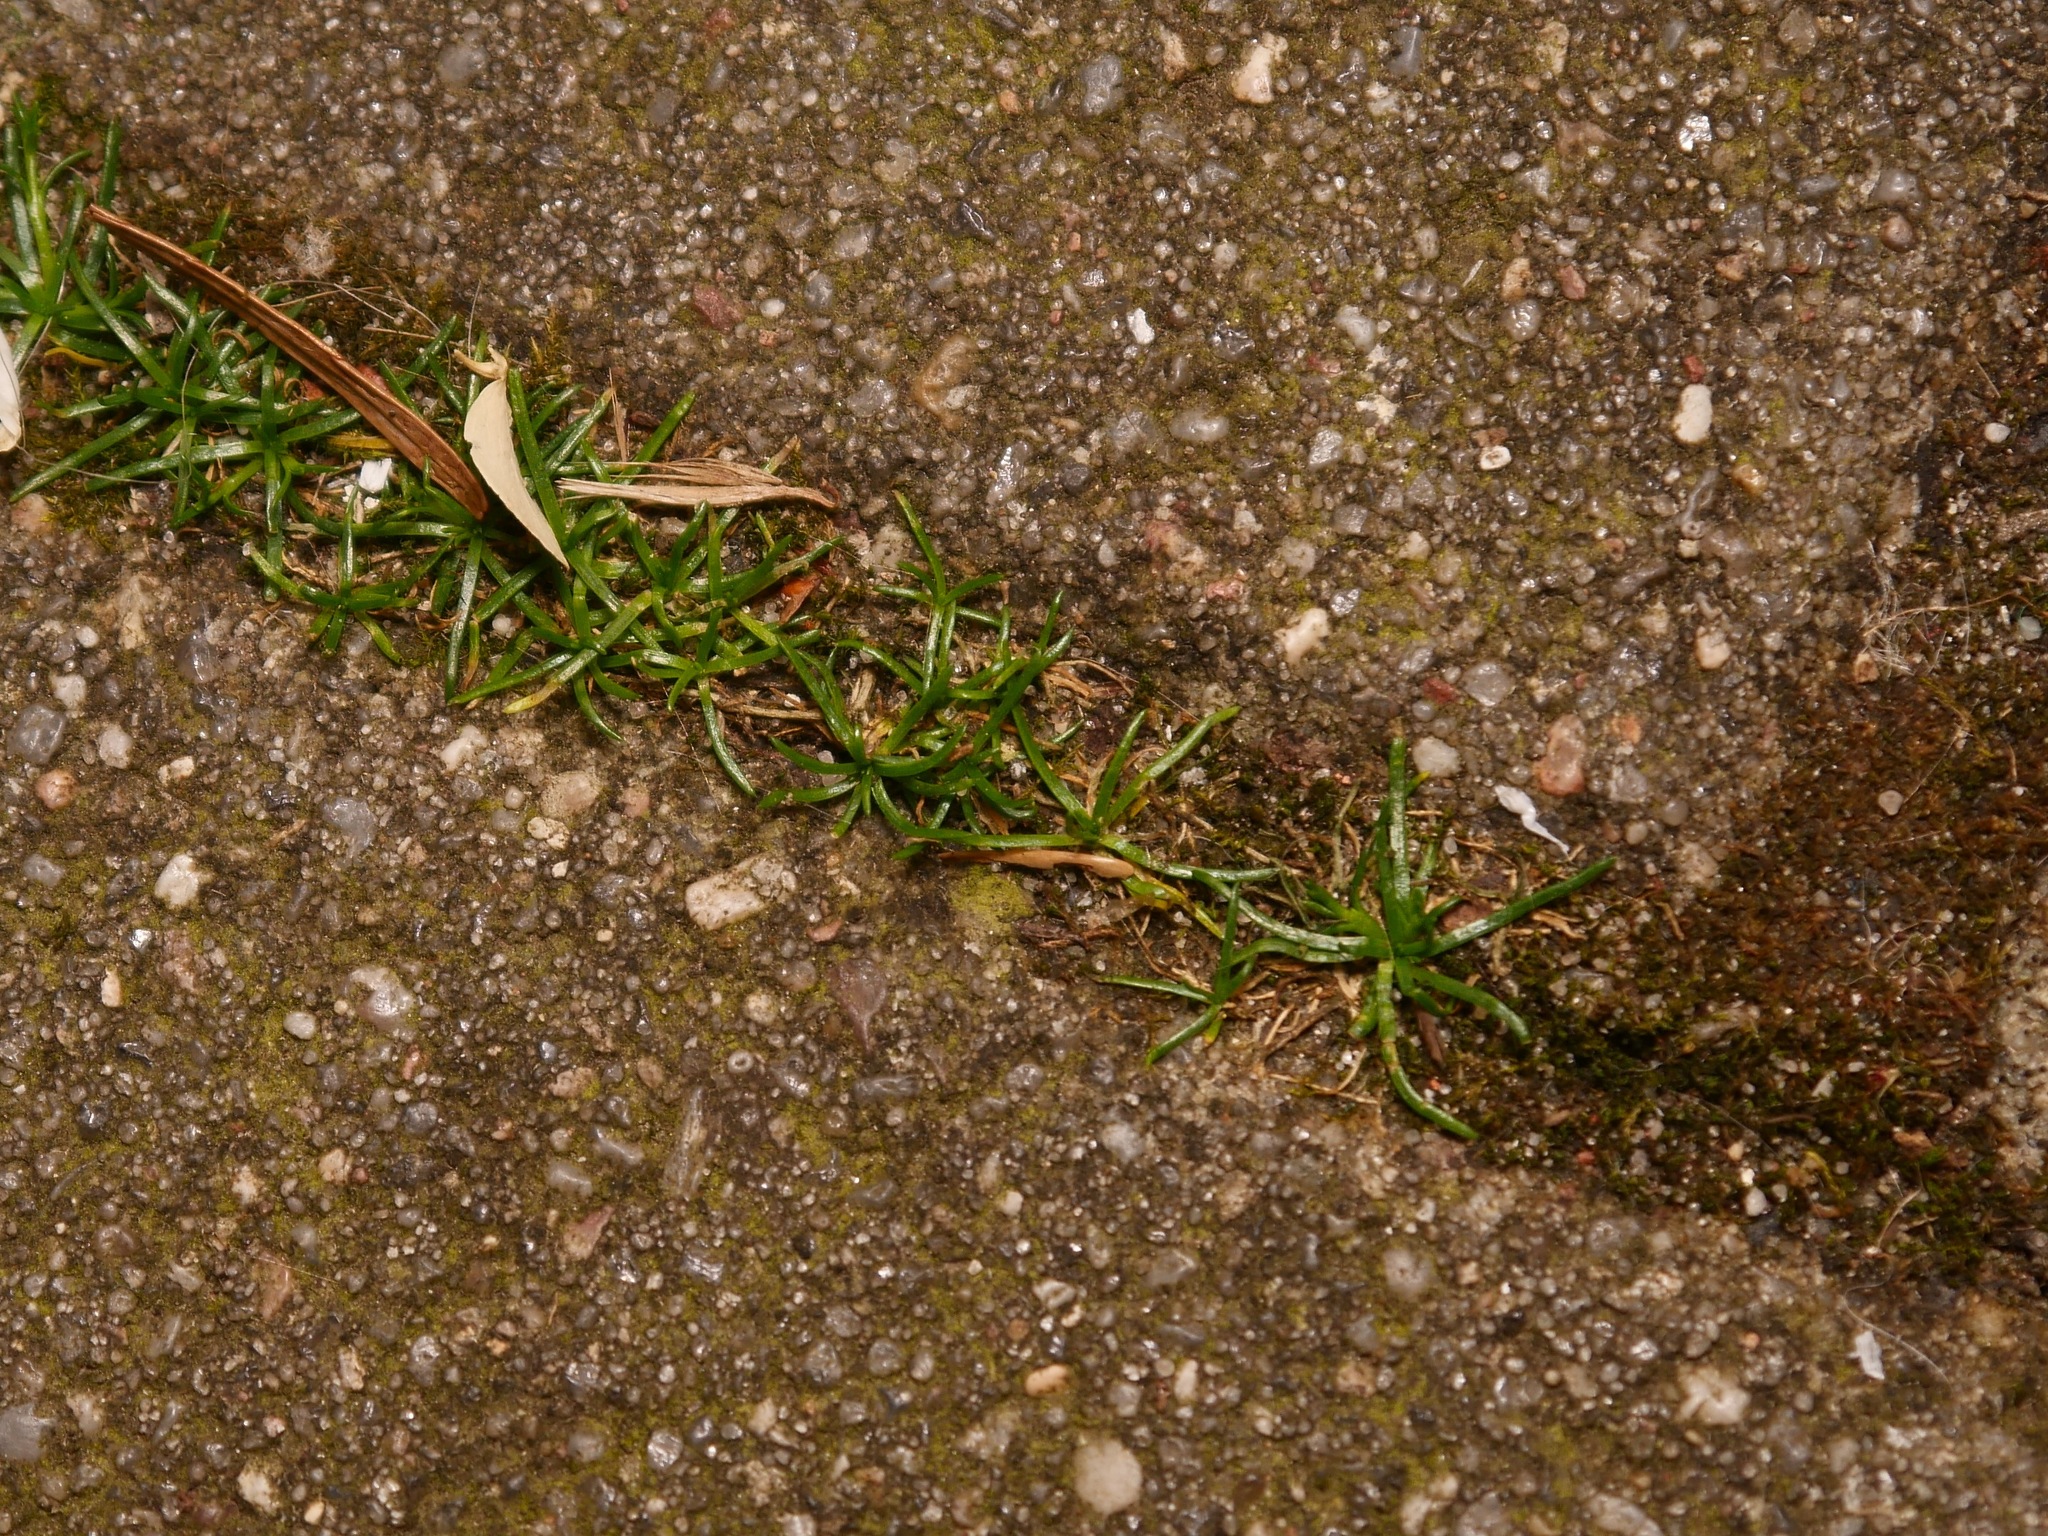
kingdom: Plantae
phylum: Tracheophyta
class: Magnoliopsida
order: Caryophyllales
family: Caryophyllaceae
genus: Sagina
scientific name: Sagina procumbens
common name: Procumbent pearlwort
